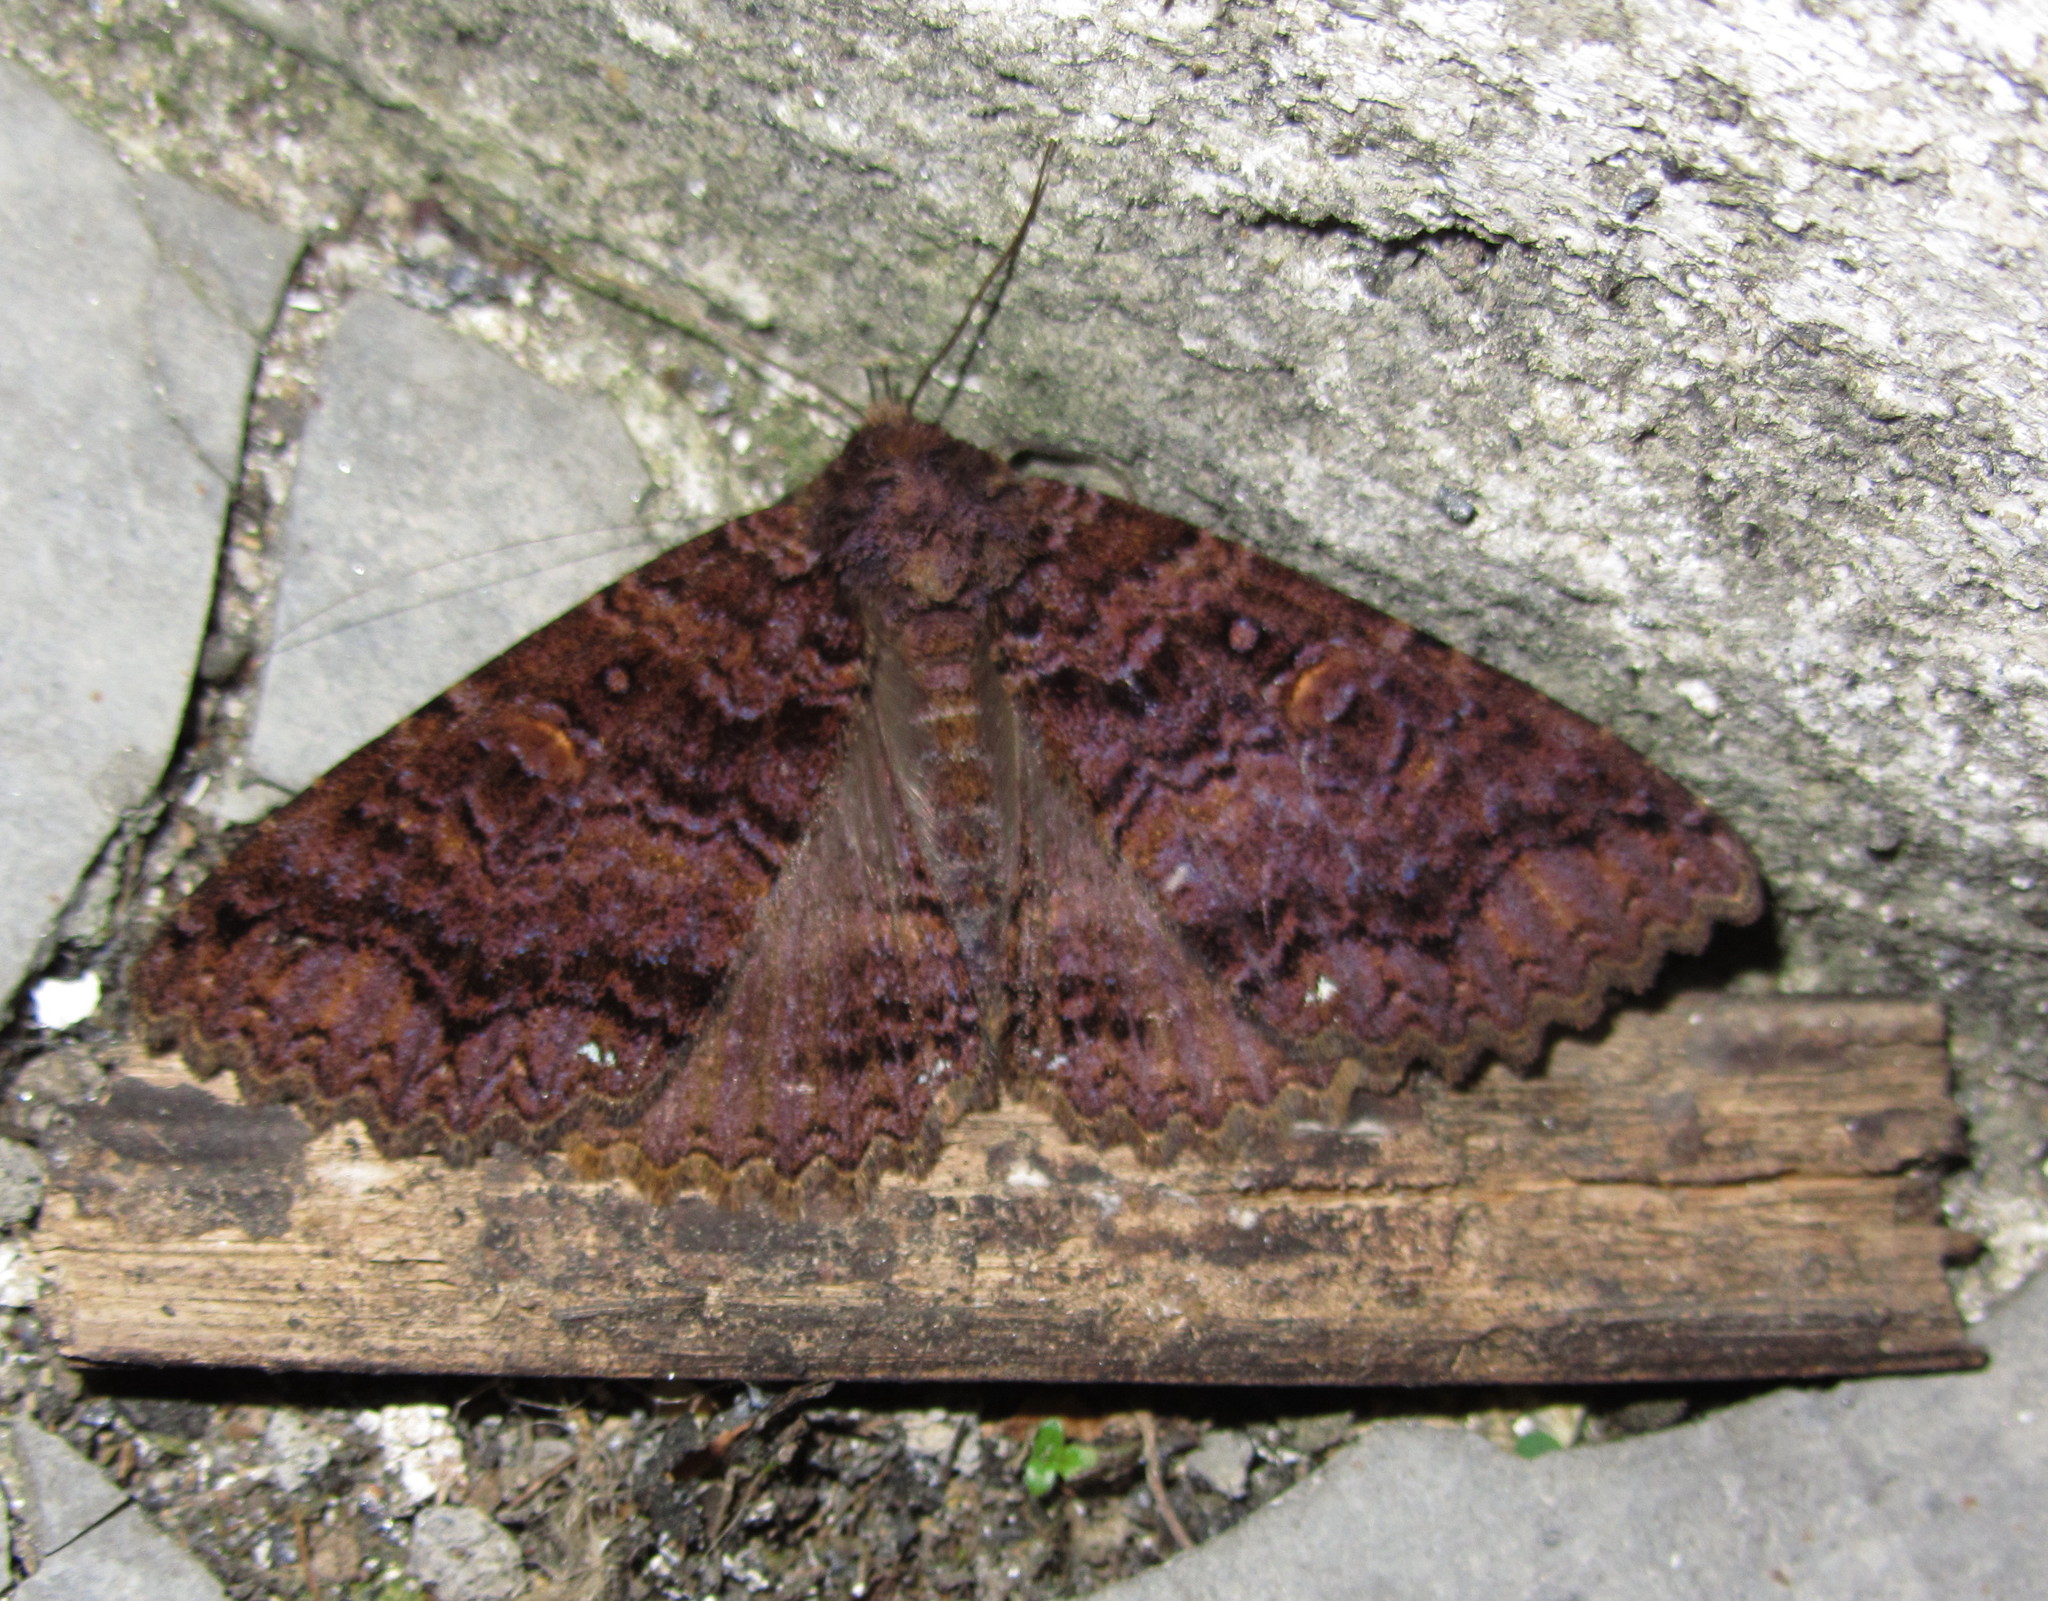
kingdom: Animalia
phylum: Arthropoda
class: Insecta
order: Lepidoptera
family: Erebidae
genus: Sypna
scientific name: Sypna dubitaria
